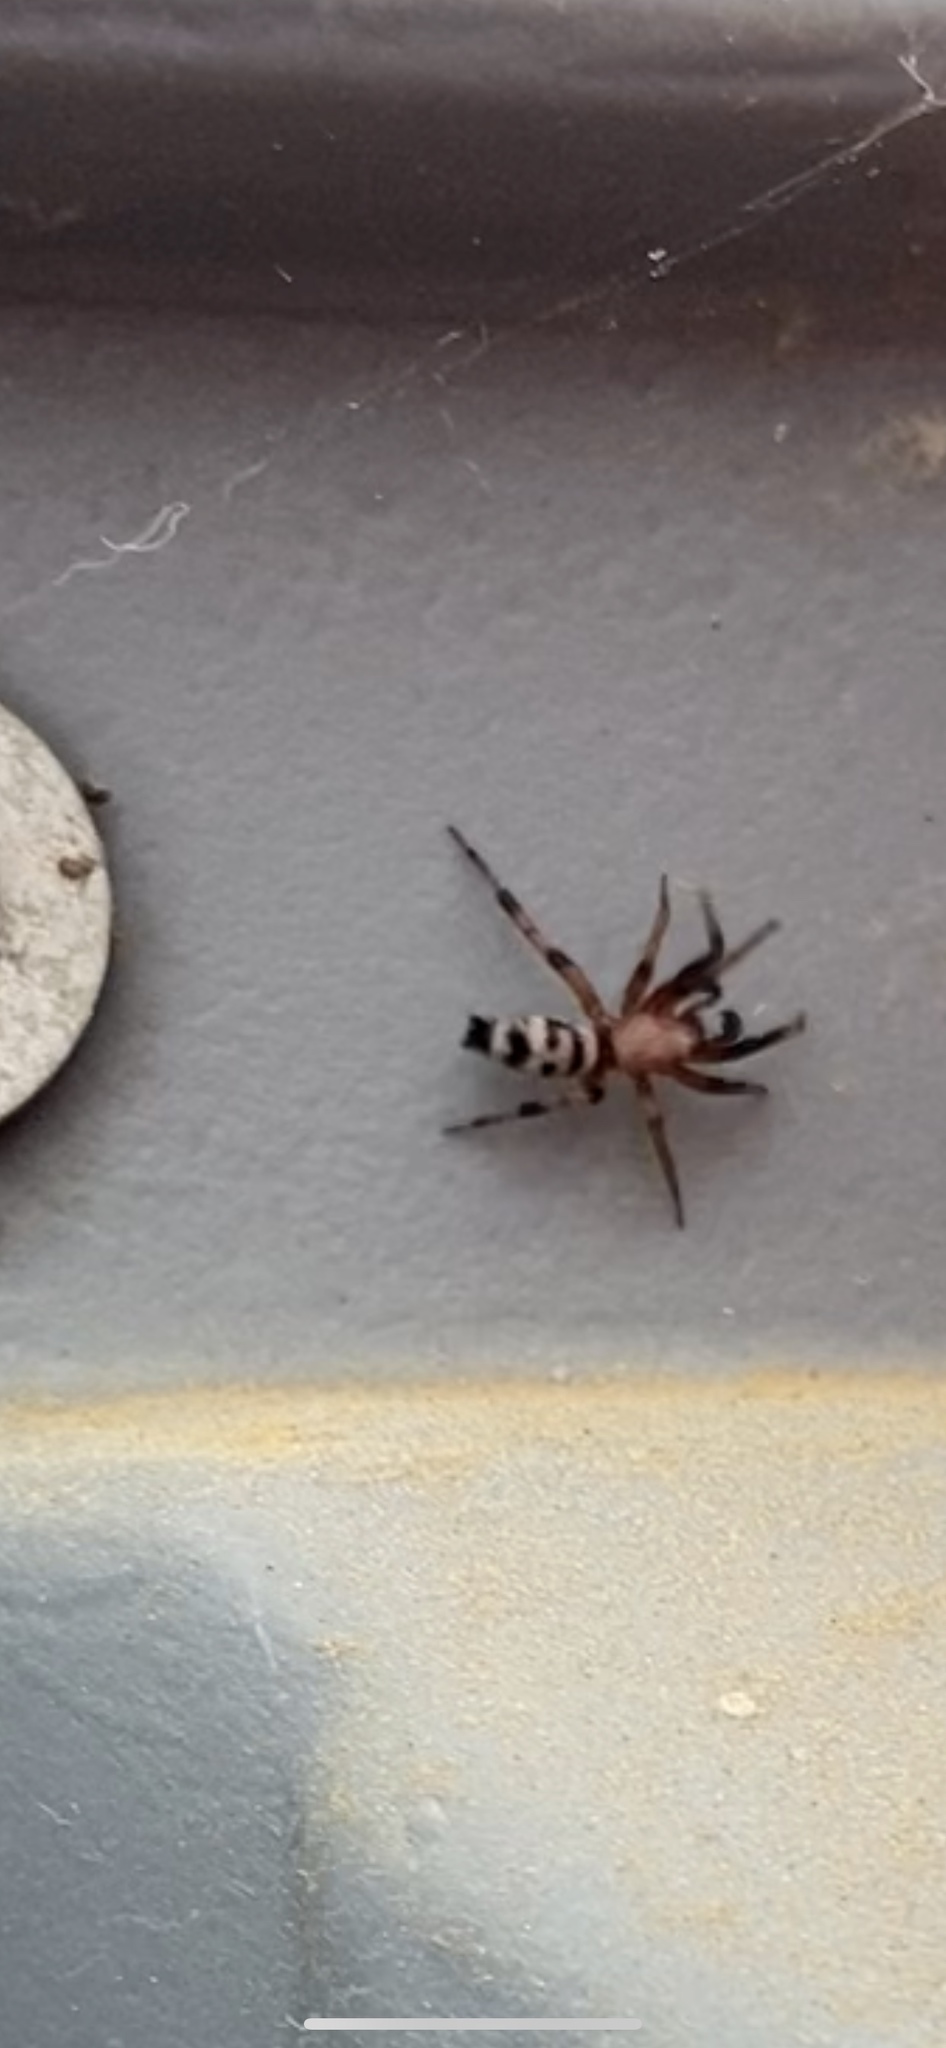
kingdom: Animalia
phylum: Arthropoda
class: Arachnida
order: Araneae
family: Gnaphosidae
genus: Sergiolus
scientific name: Sergiolus capulatus
